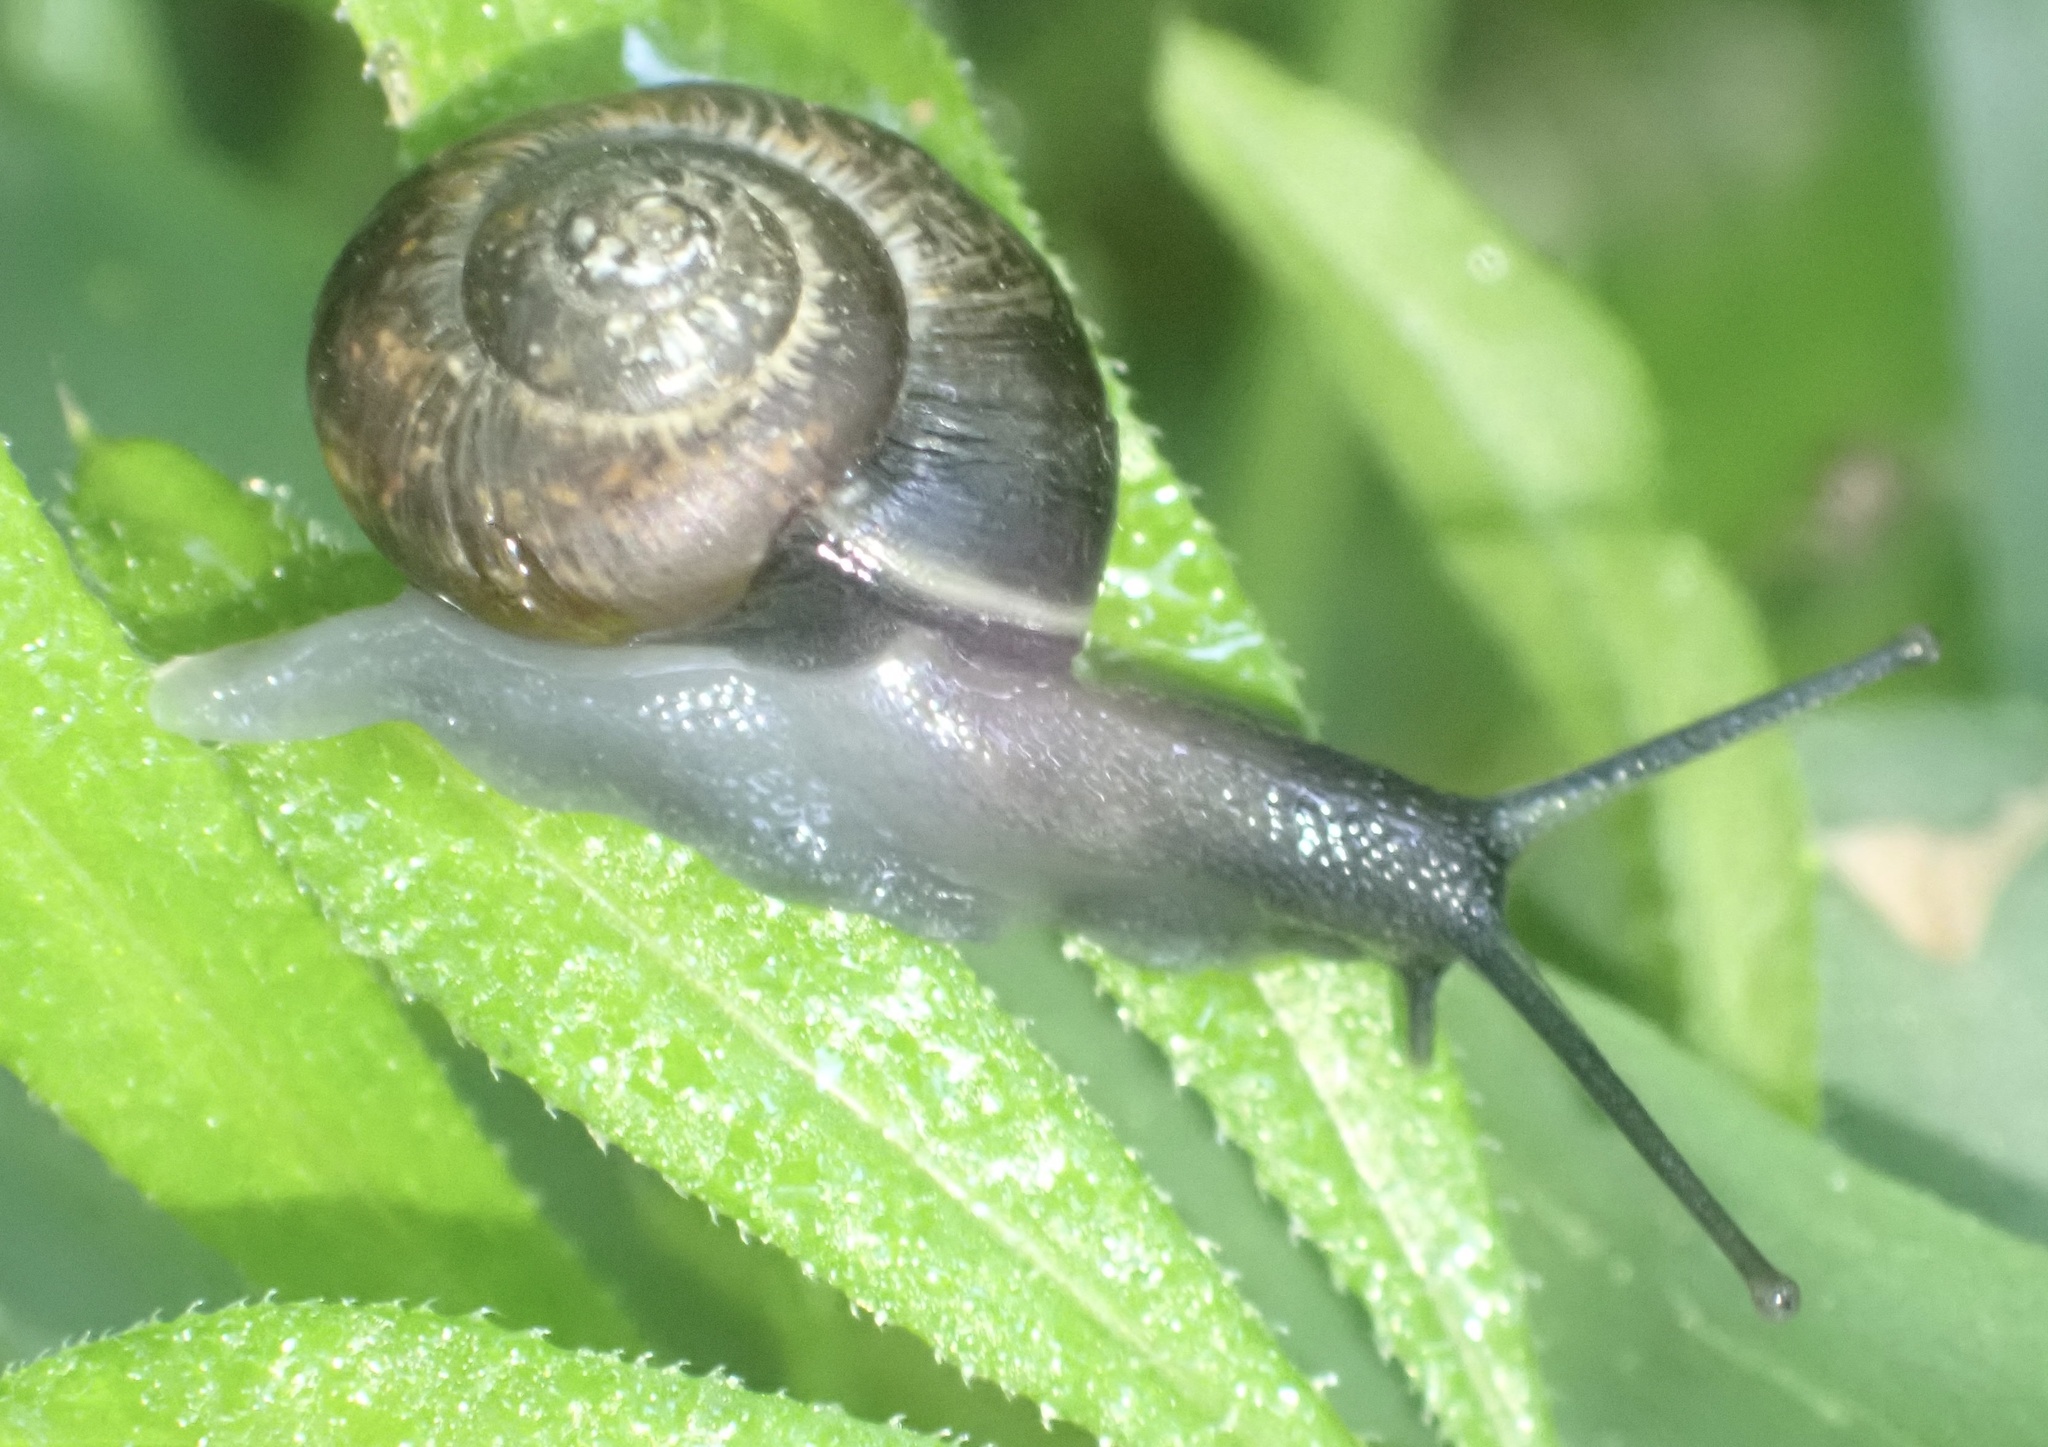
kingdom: Animalia
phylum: Mollusca
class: Gastropoda
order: Stylommatophora
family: Helicidae
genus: Arianta
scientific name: Arianta arbustorum
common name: Copse snail
